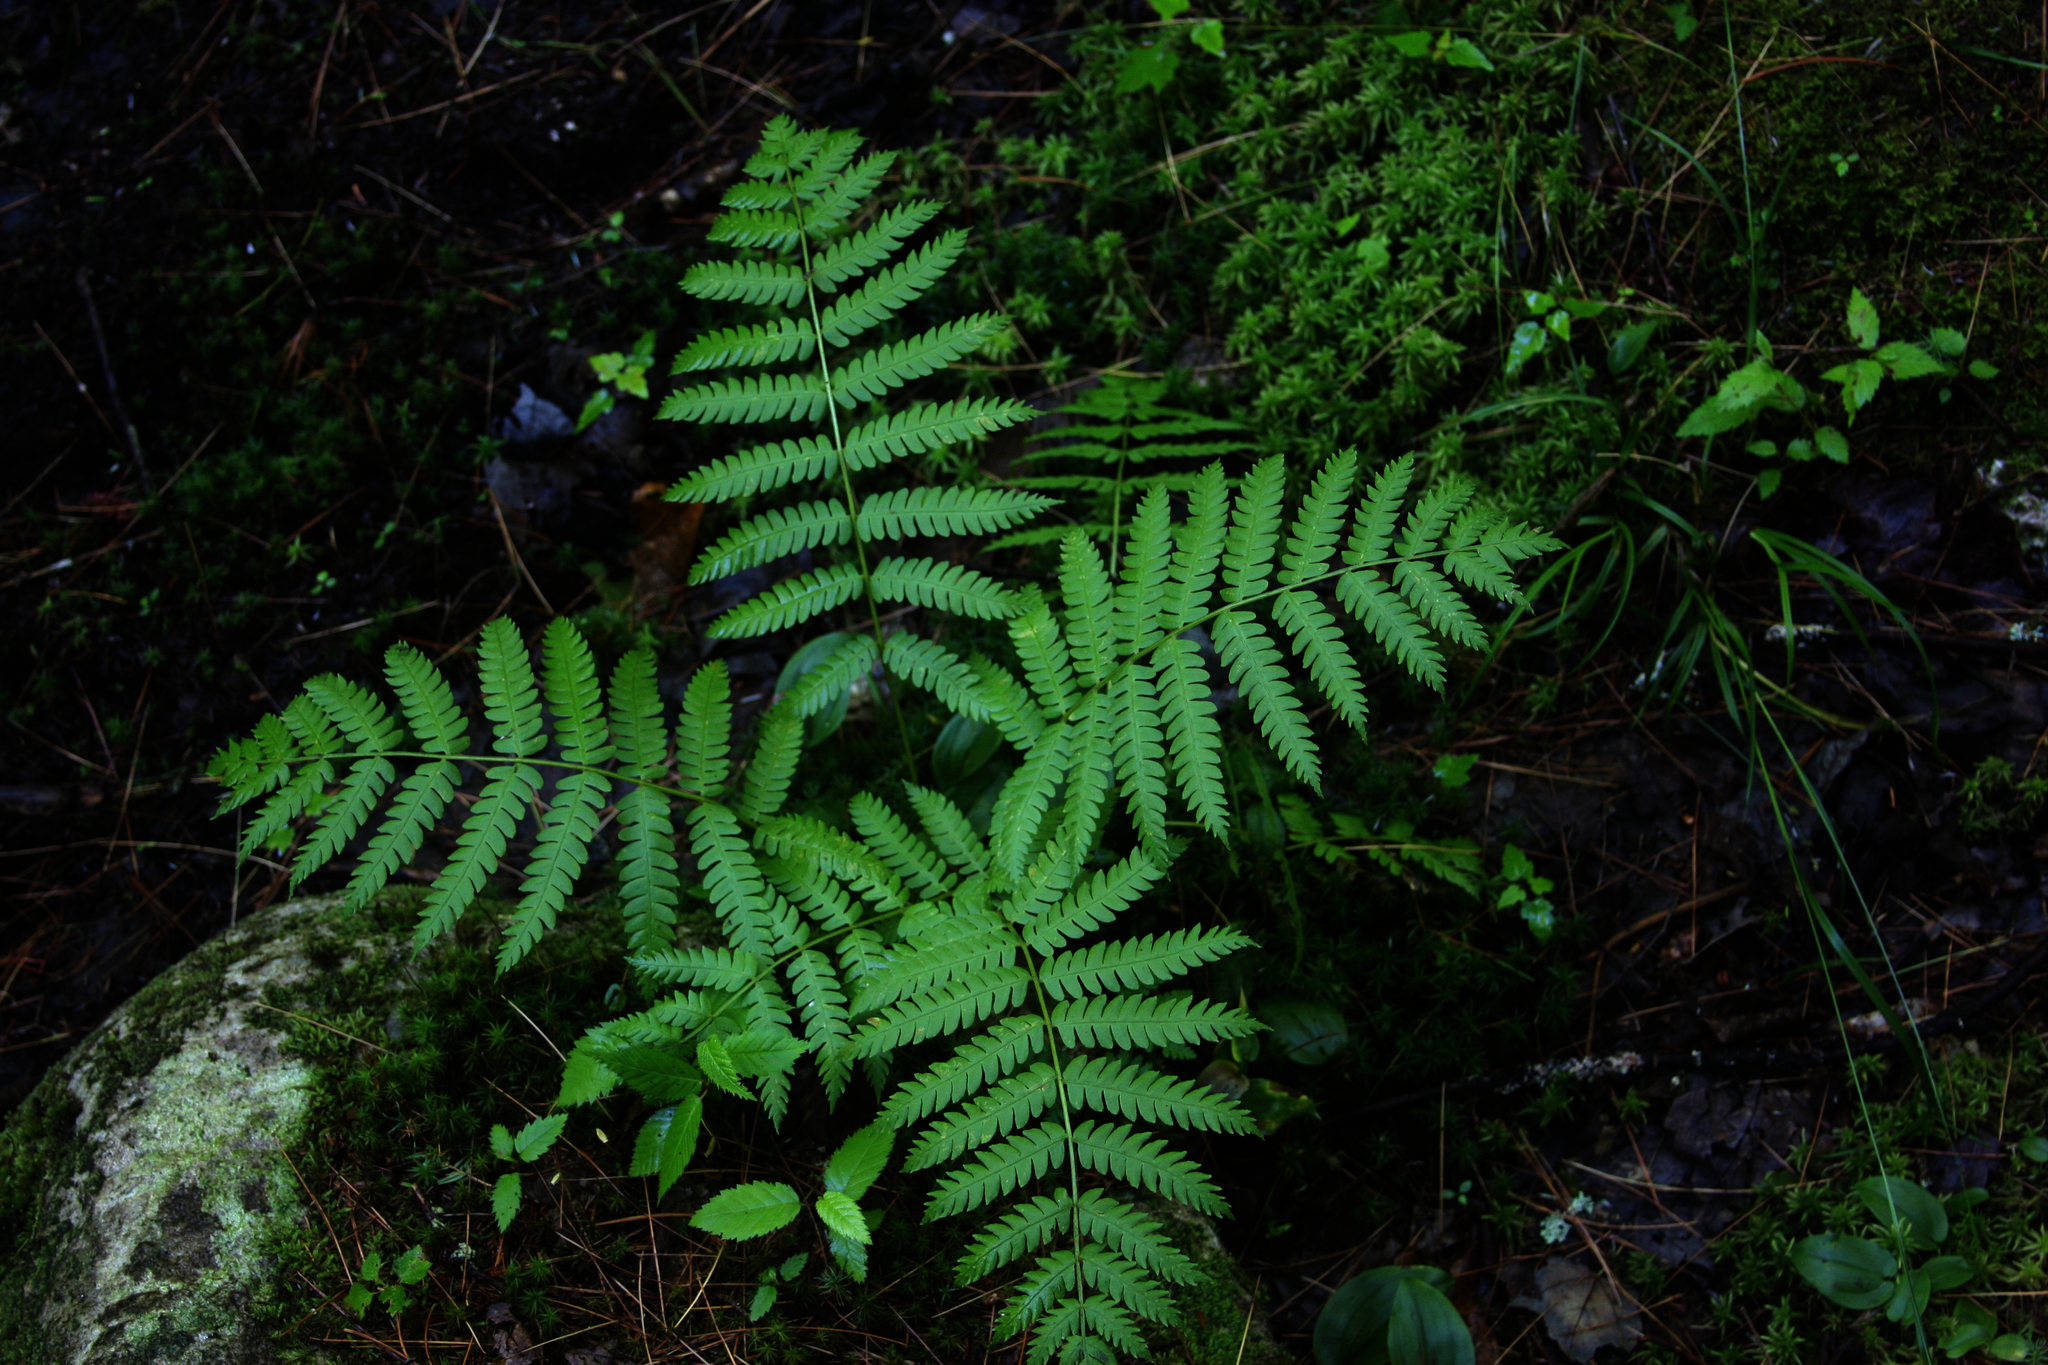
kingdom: Plantae
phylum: Tracheophyta
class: Polypodiopsida
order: Osmundales
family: Osmundaceae
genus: Osmundastrum
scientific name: Osmundastrum cinnamomeum
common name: Cinnamon fern
